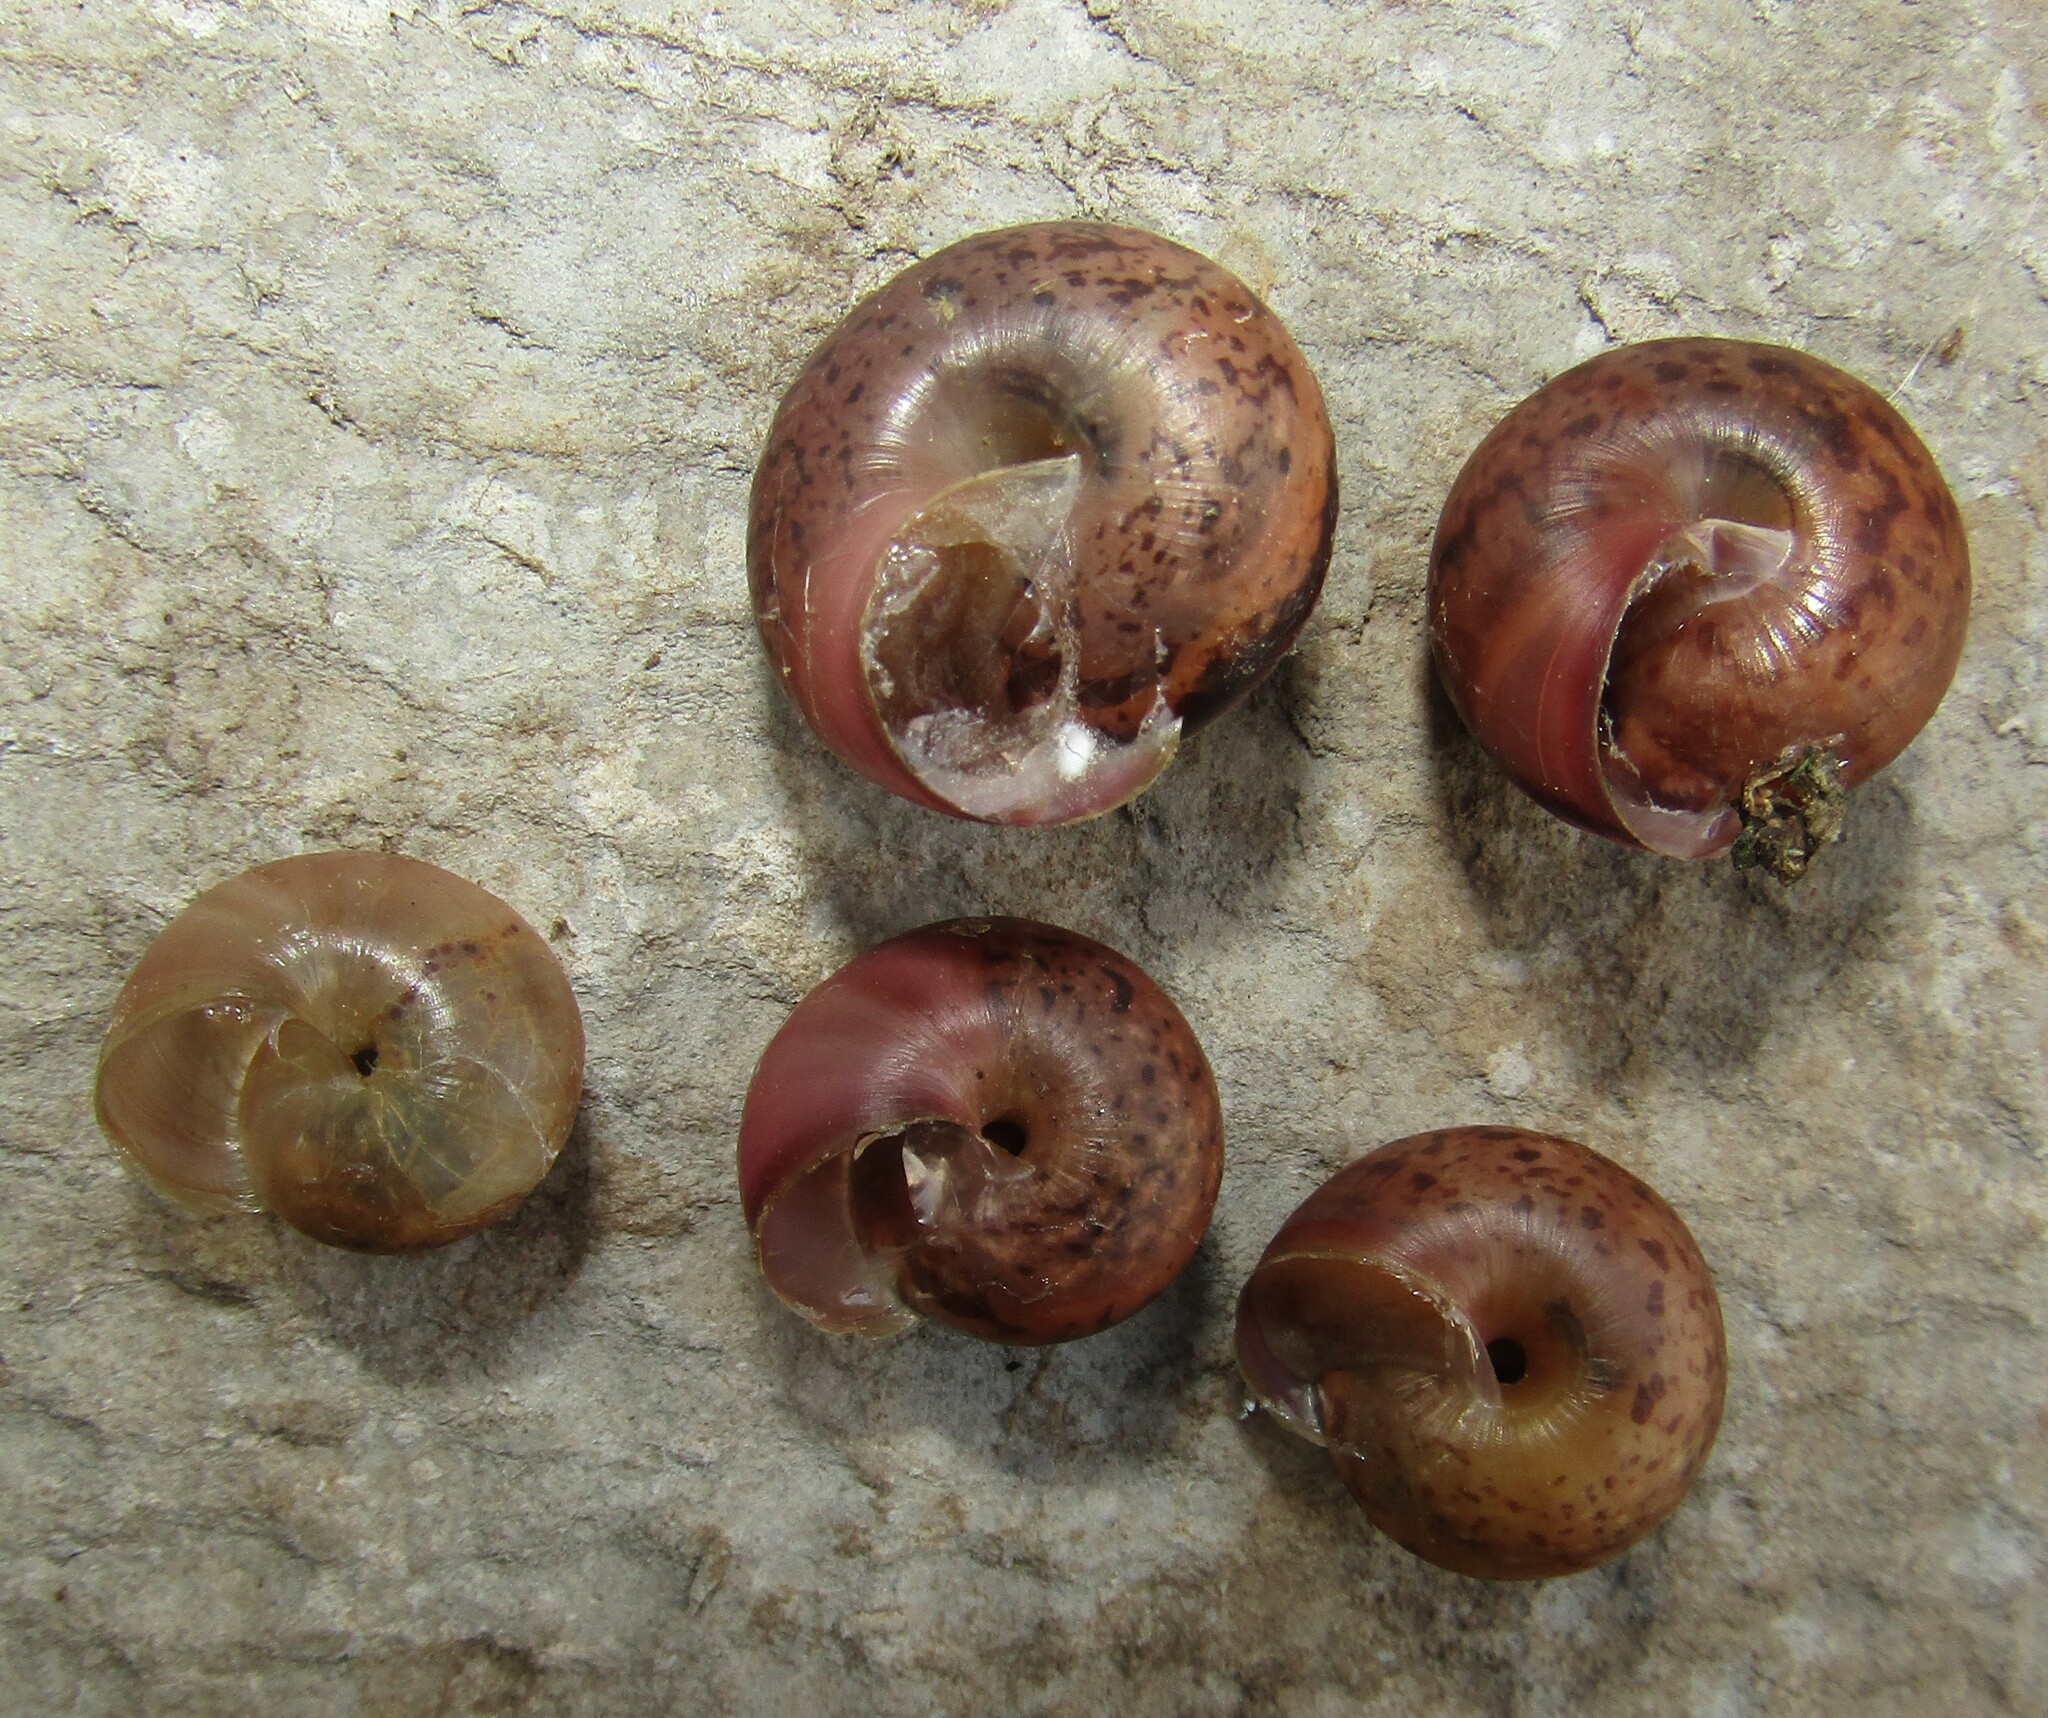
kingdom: Animalia
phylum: Mollusca
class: Gastropoda
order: Stylommatophora
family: Camaenidae
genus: Fruticicola
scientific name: Fruticicola fruticum
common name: Bush snail
